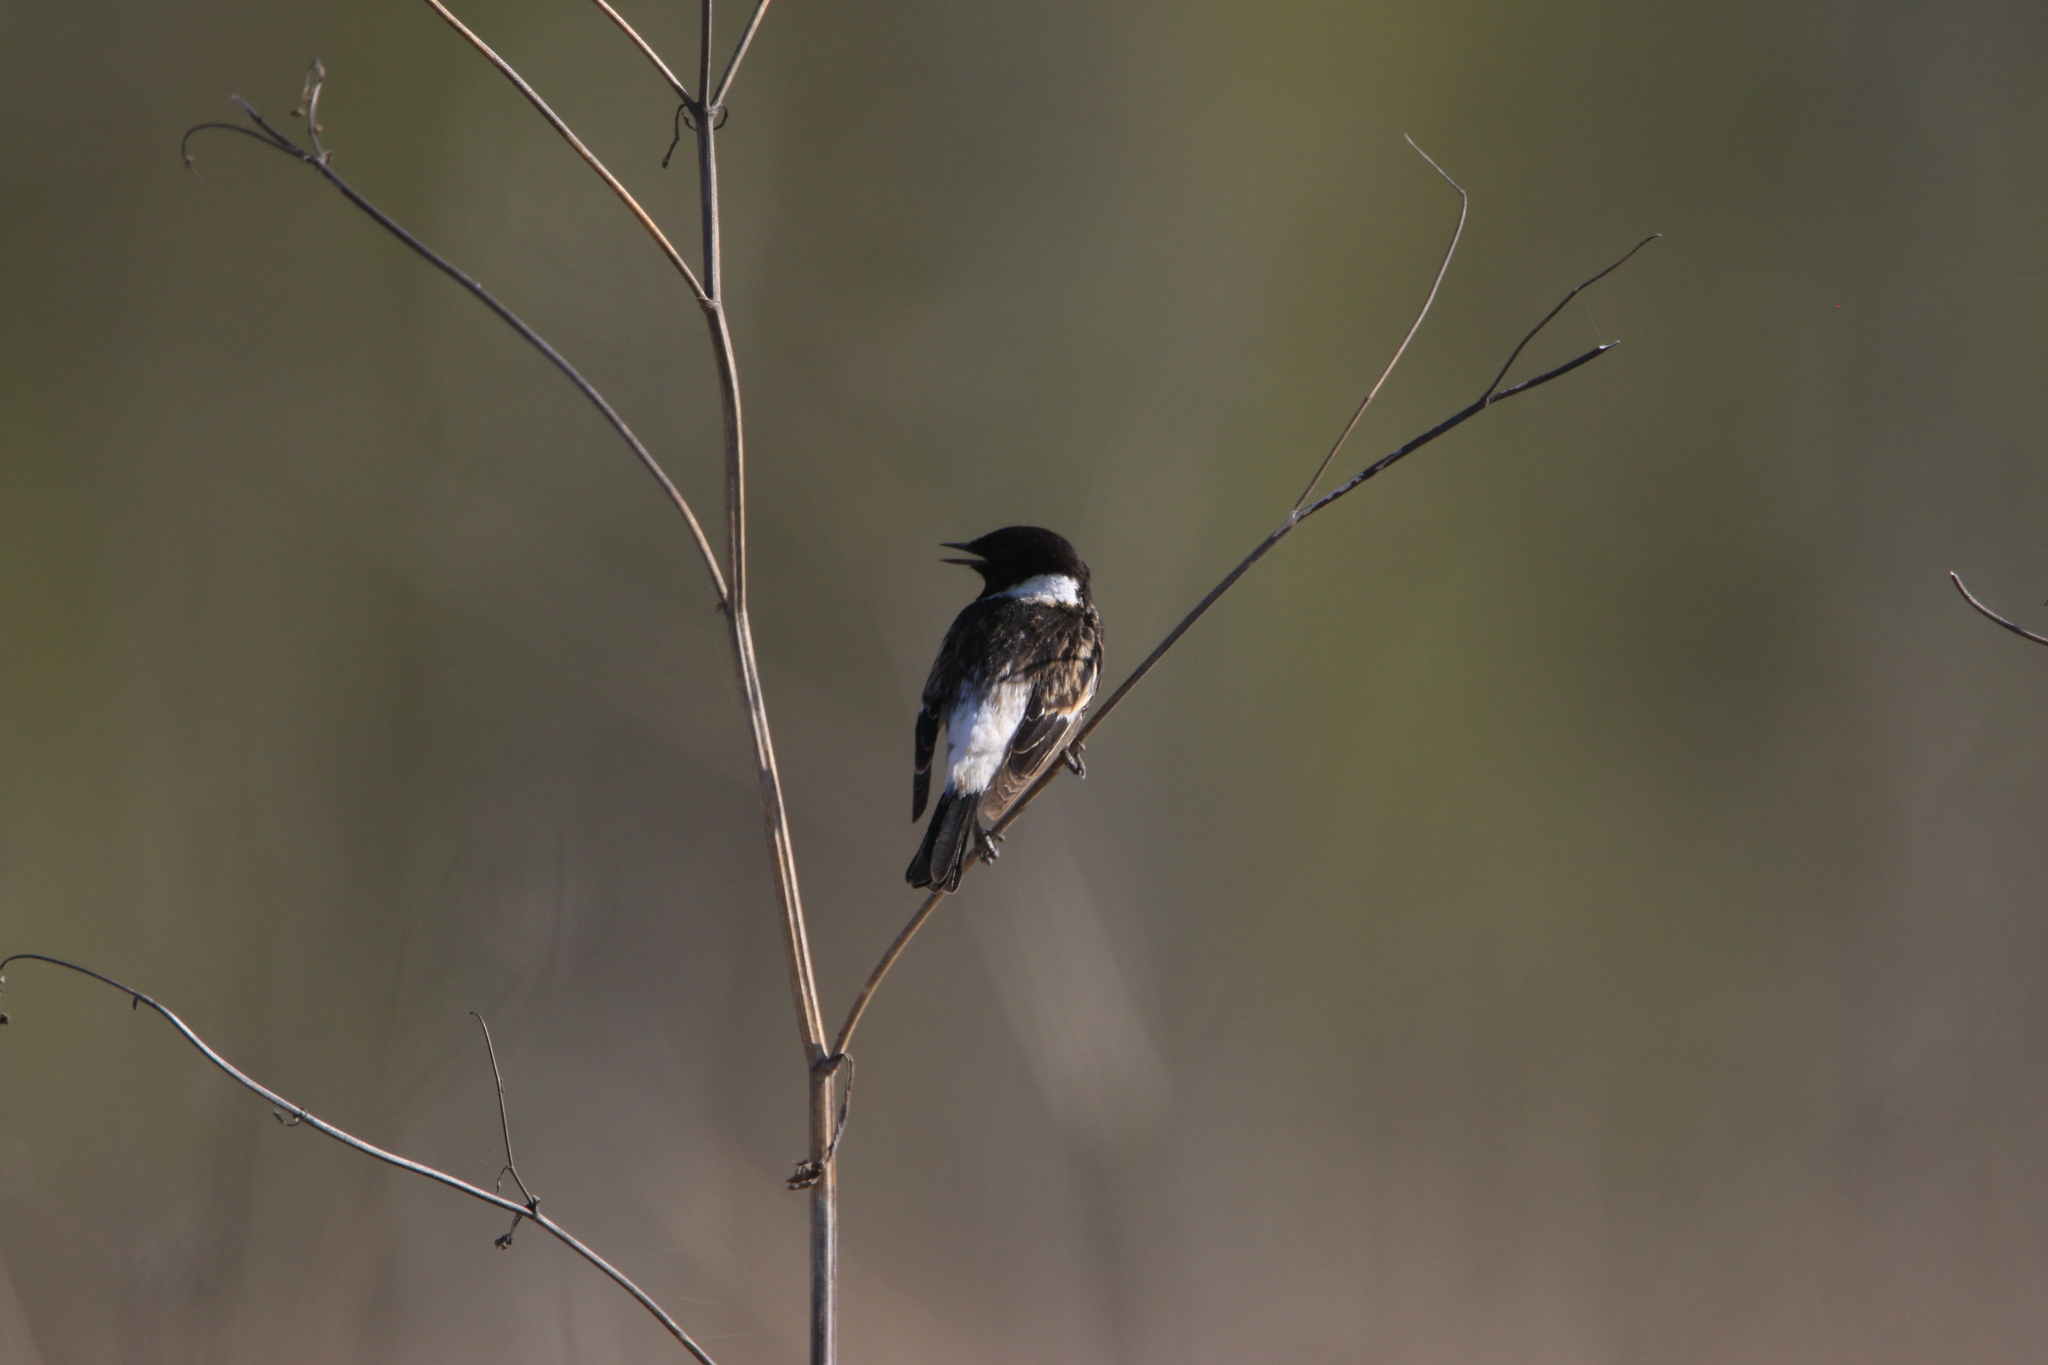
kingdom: Animalia
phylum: Chordata
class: Aves
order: Passeriformes
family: Muscicapidae
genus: Saxicola
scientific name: Saxicola maurus
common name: Siberian stonechat
